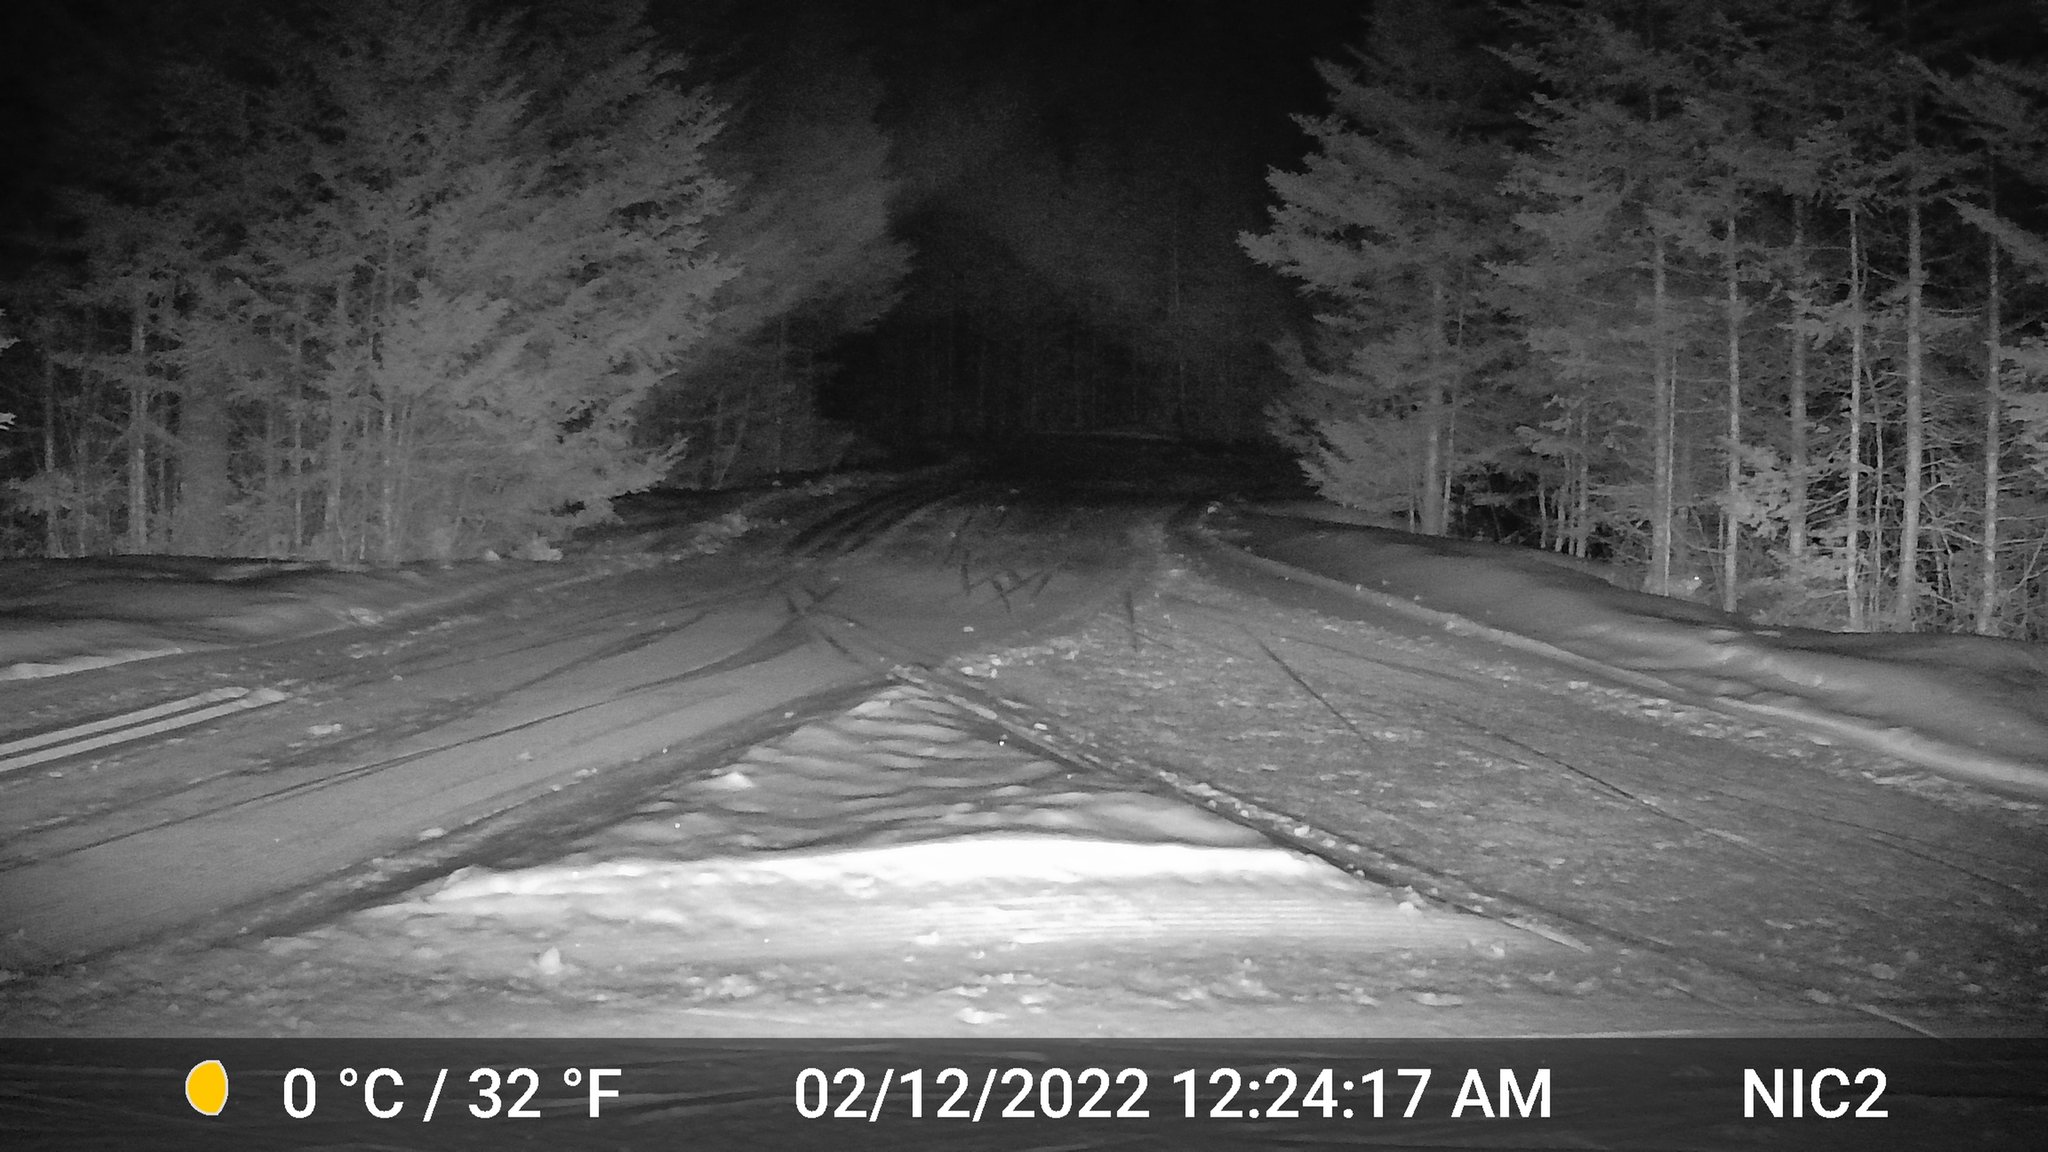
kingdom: Animalia
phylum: Chordata
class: Mammalia
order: Lagomorpha
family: Leporidae
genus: Lepus
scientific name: Lepus americanus
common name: Snowshoe hare
